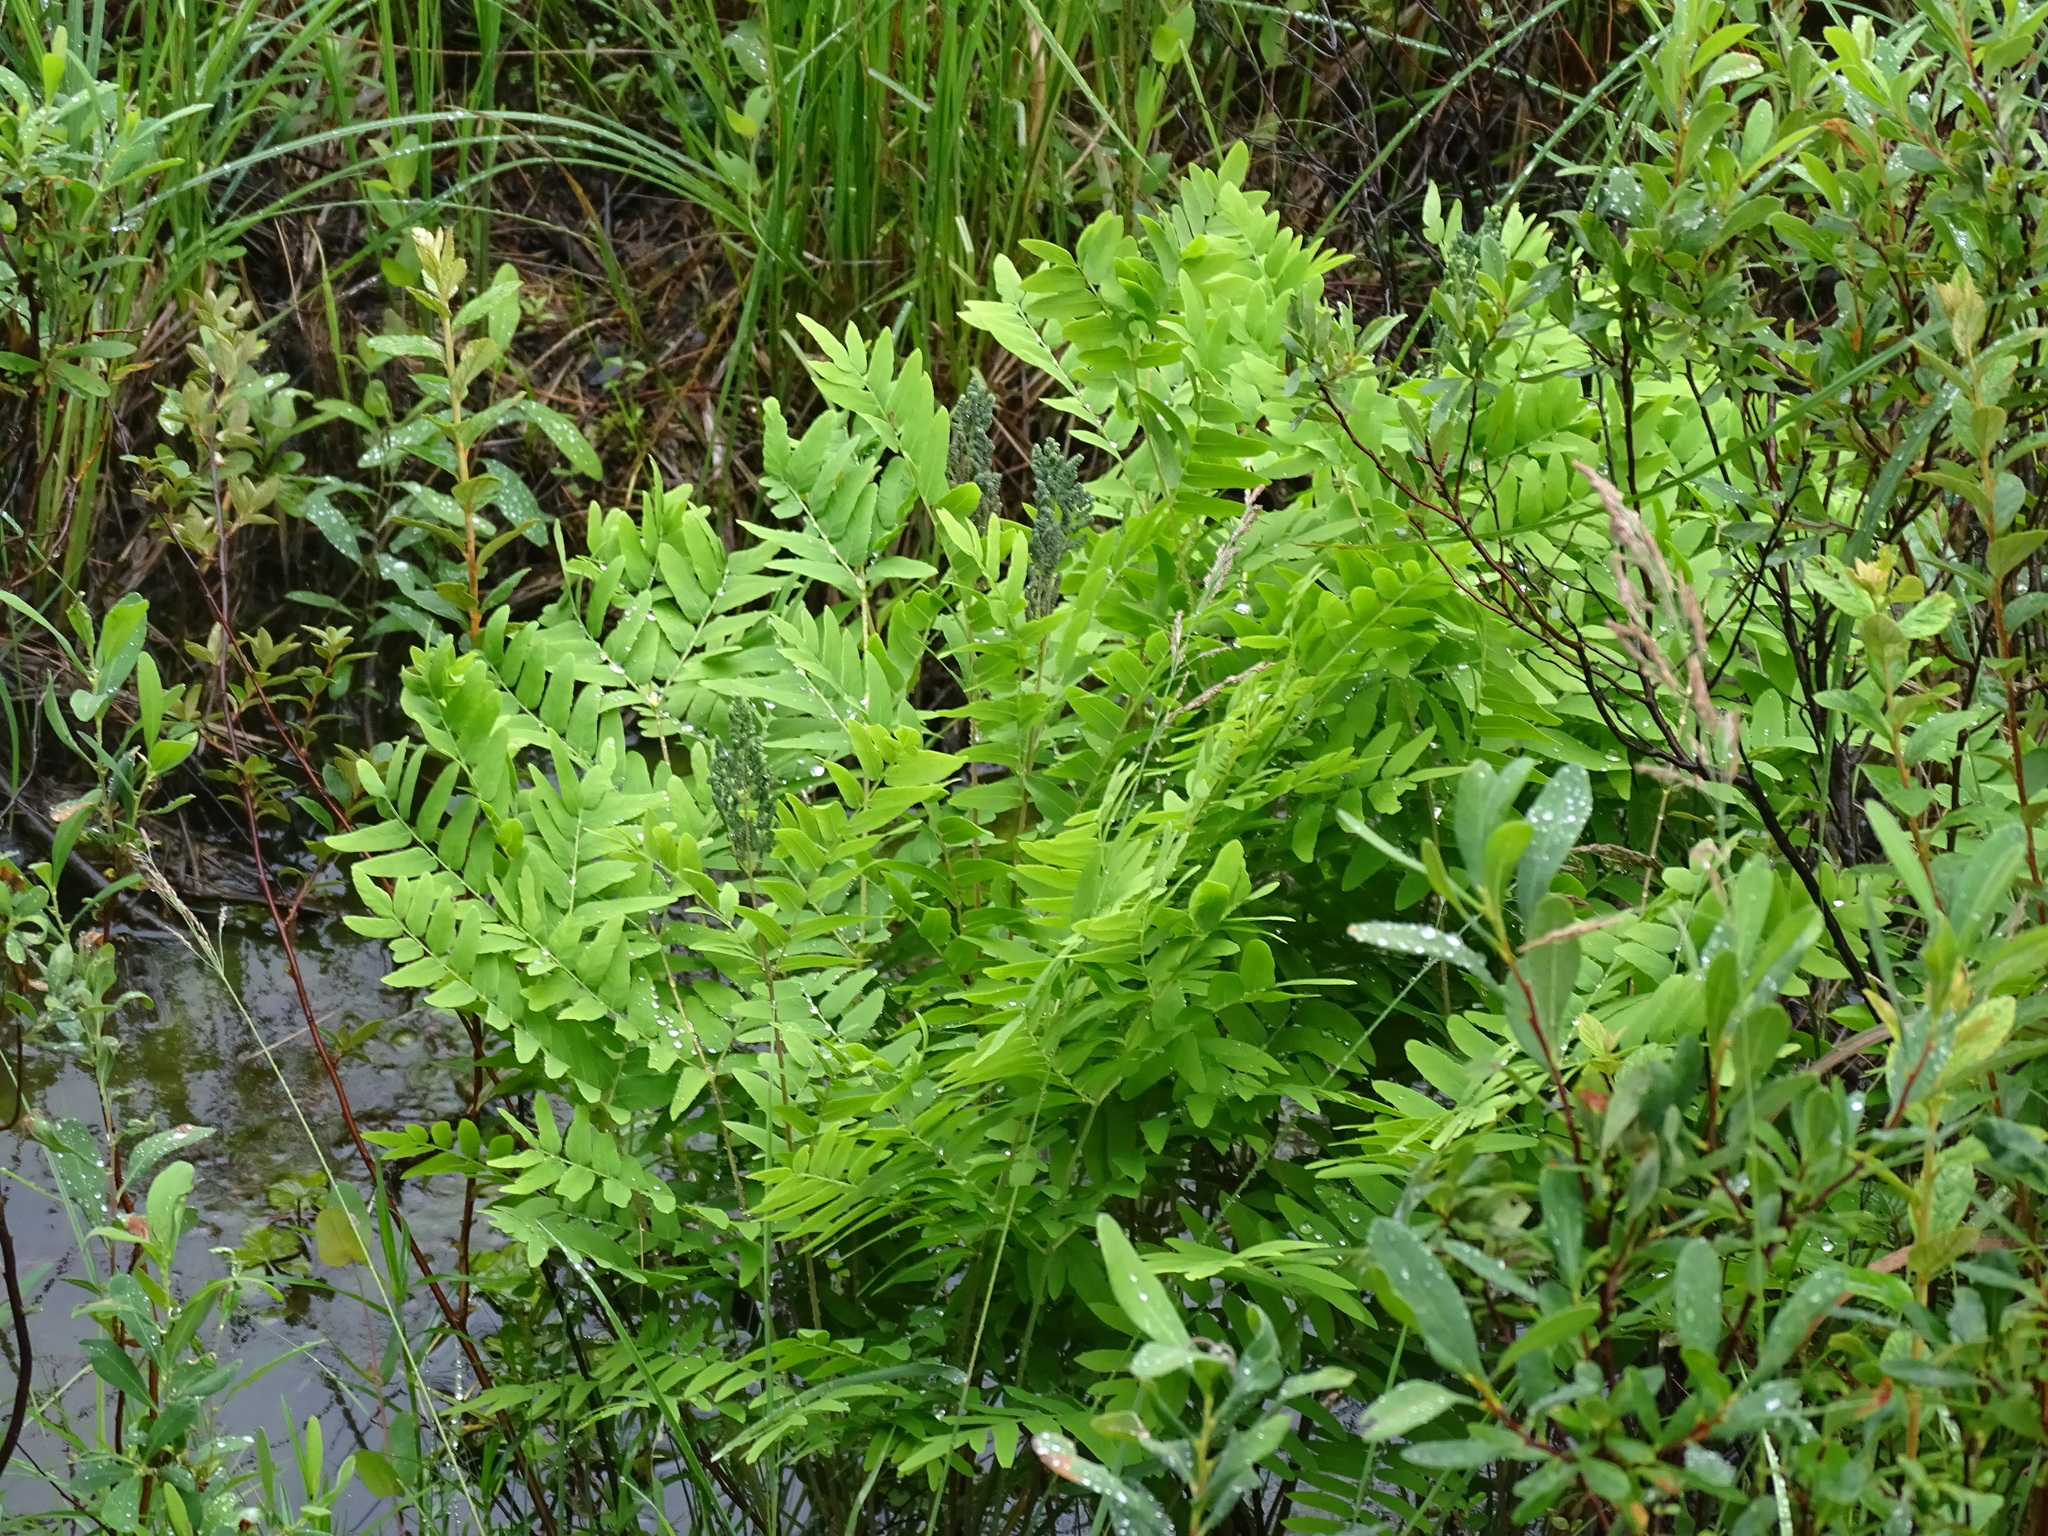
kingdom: Plantae
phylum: Tracheophyta
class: Polypodiopsida
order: Osmundales
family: Osmundaceae
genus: Osmunda
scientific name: Osmunda spectabilis
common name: American royal fern
